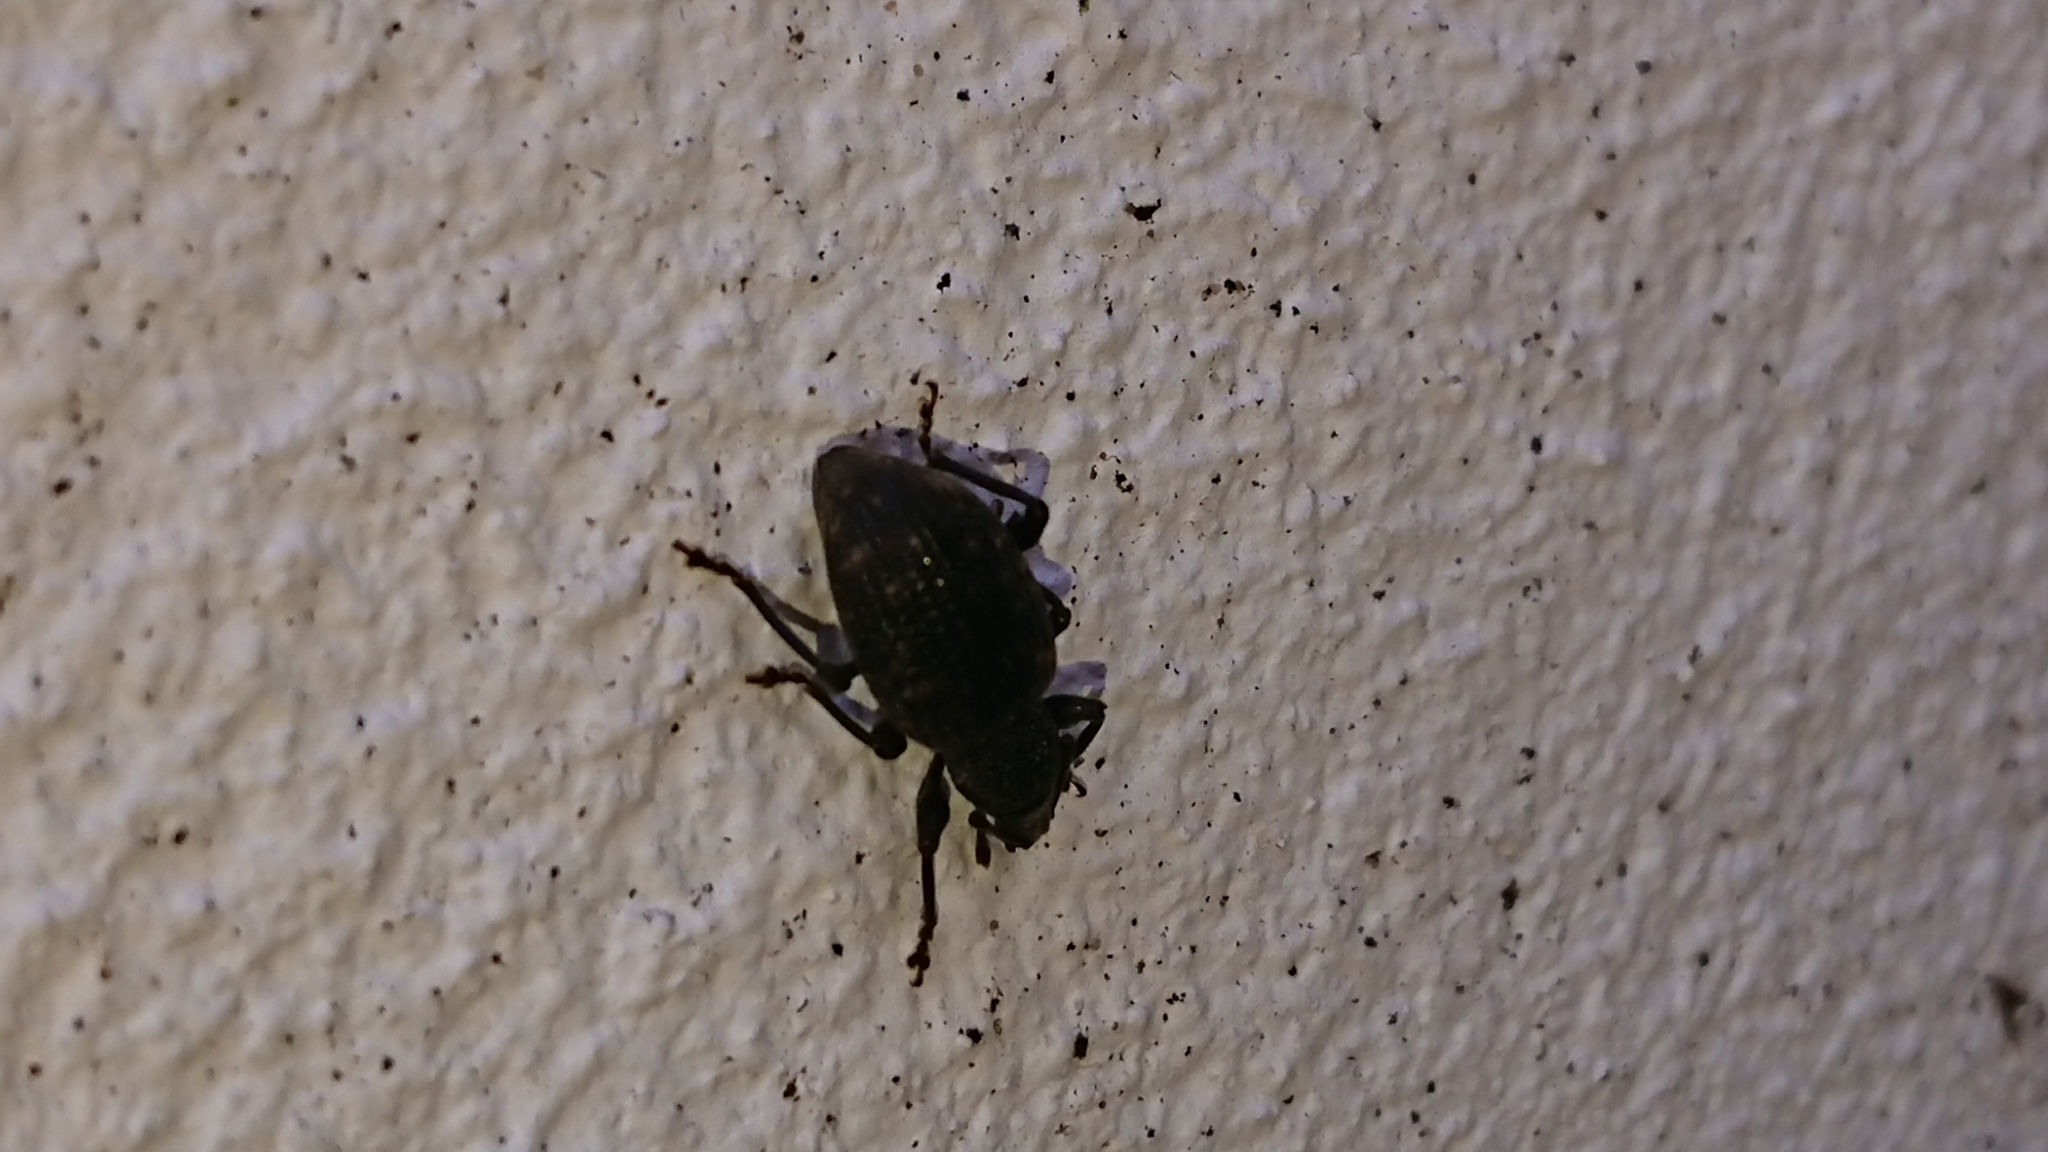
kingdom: Animalia
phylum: Arthropoda
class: Insecta
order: Coleoptera
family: Curculionidae
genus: Otiorhynchus
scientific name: Otiorhynchus sulcatus
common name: Black vine weevil
